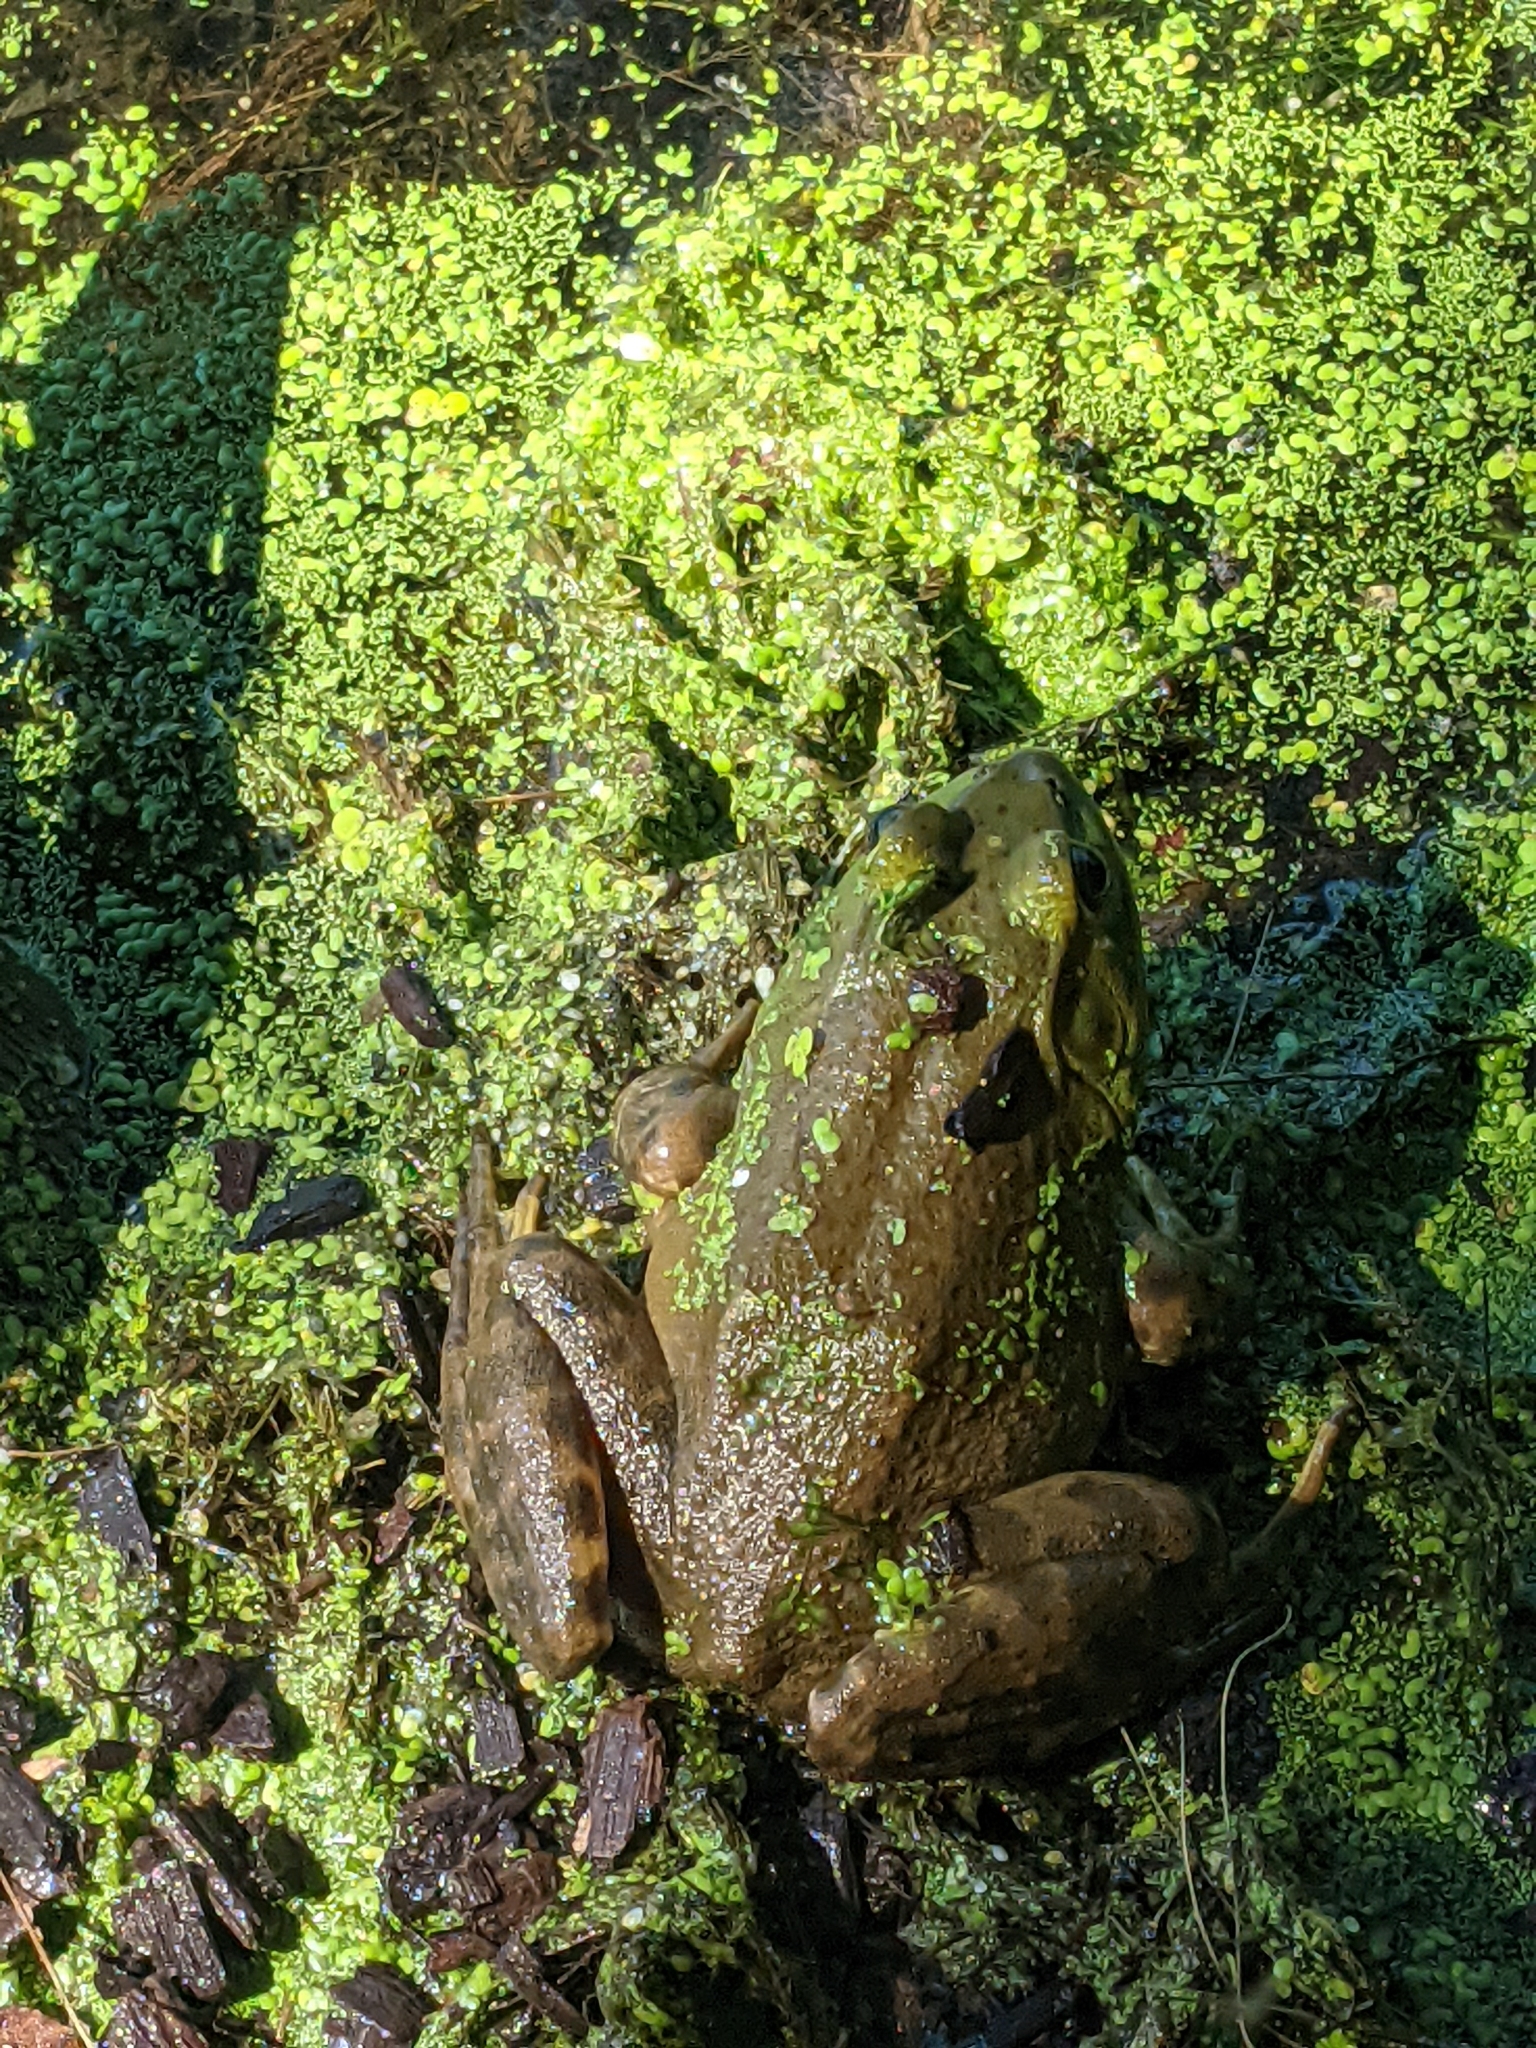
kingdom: Animalia
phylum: Chordata
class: Amphibia
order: Anura
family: Ranidae
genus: Lithobates
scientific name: Lithobates catesbeianus
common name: American bullfrog
